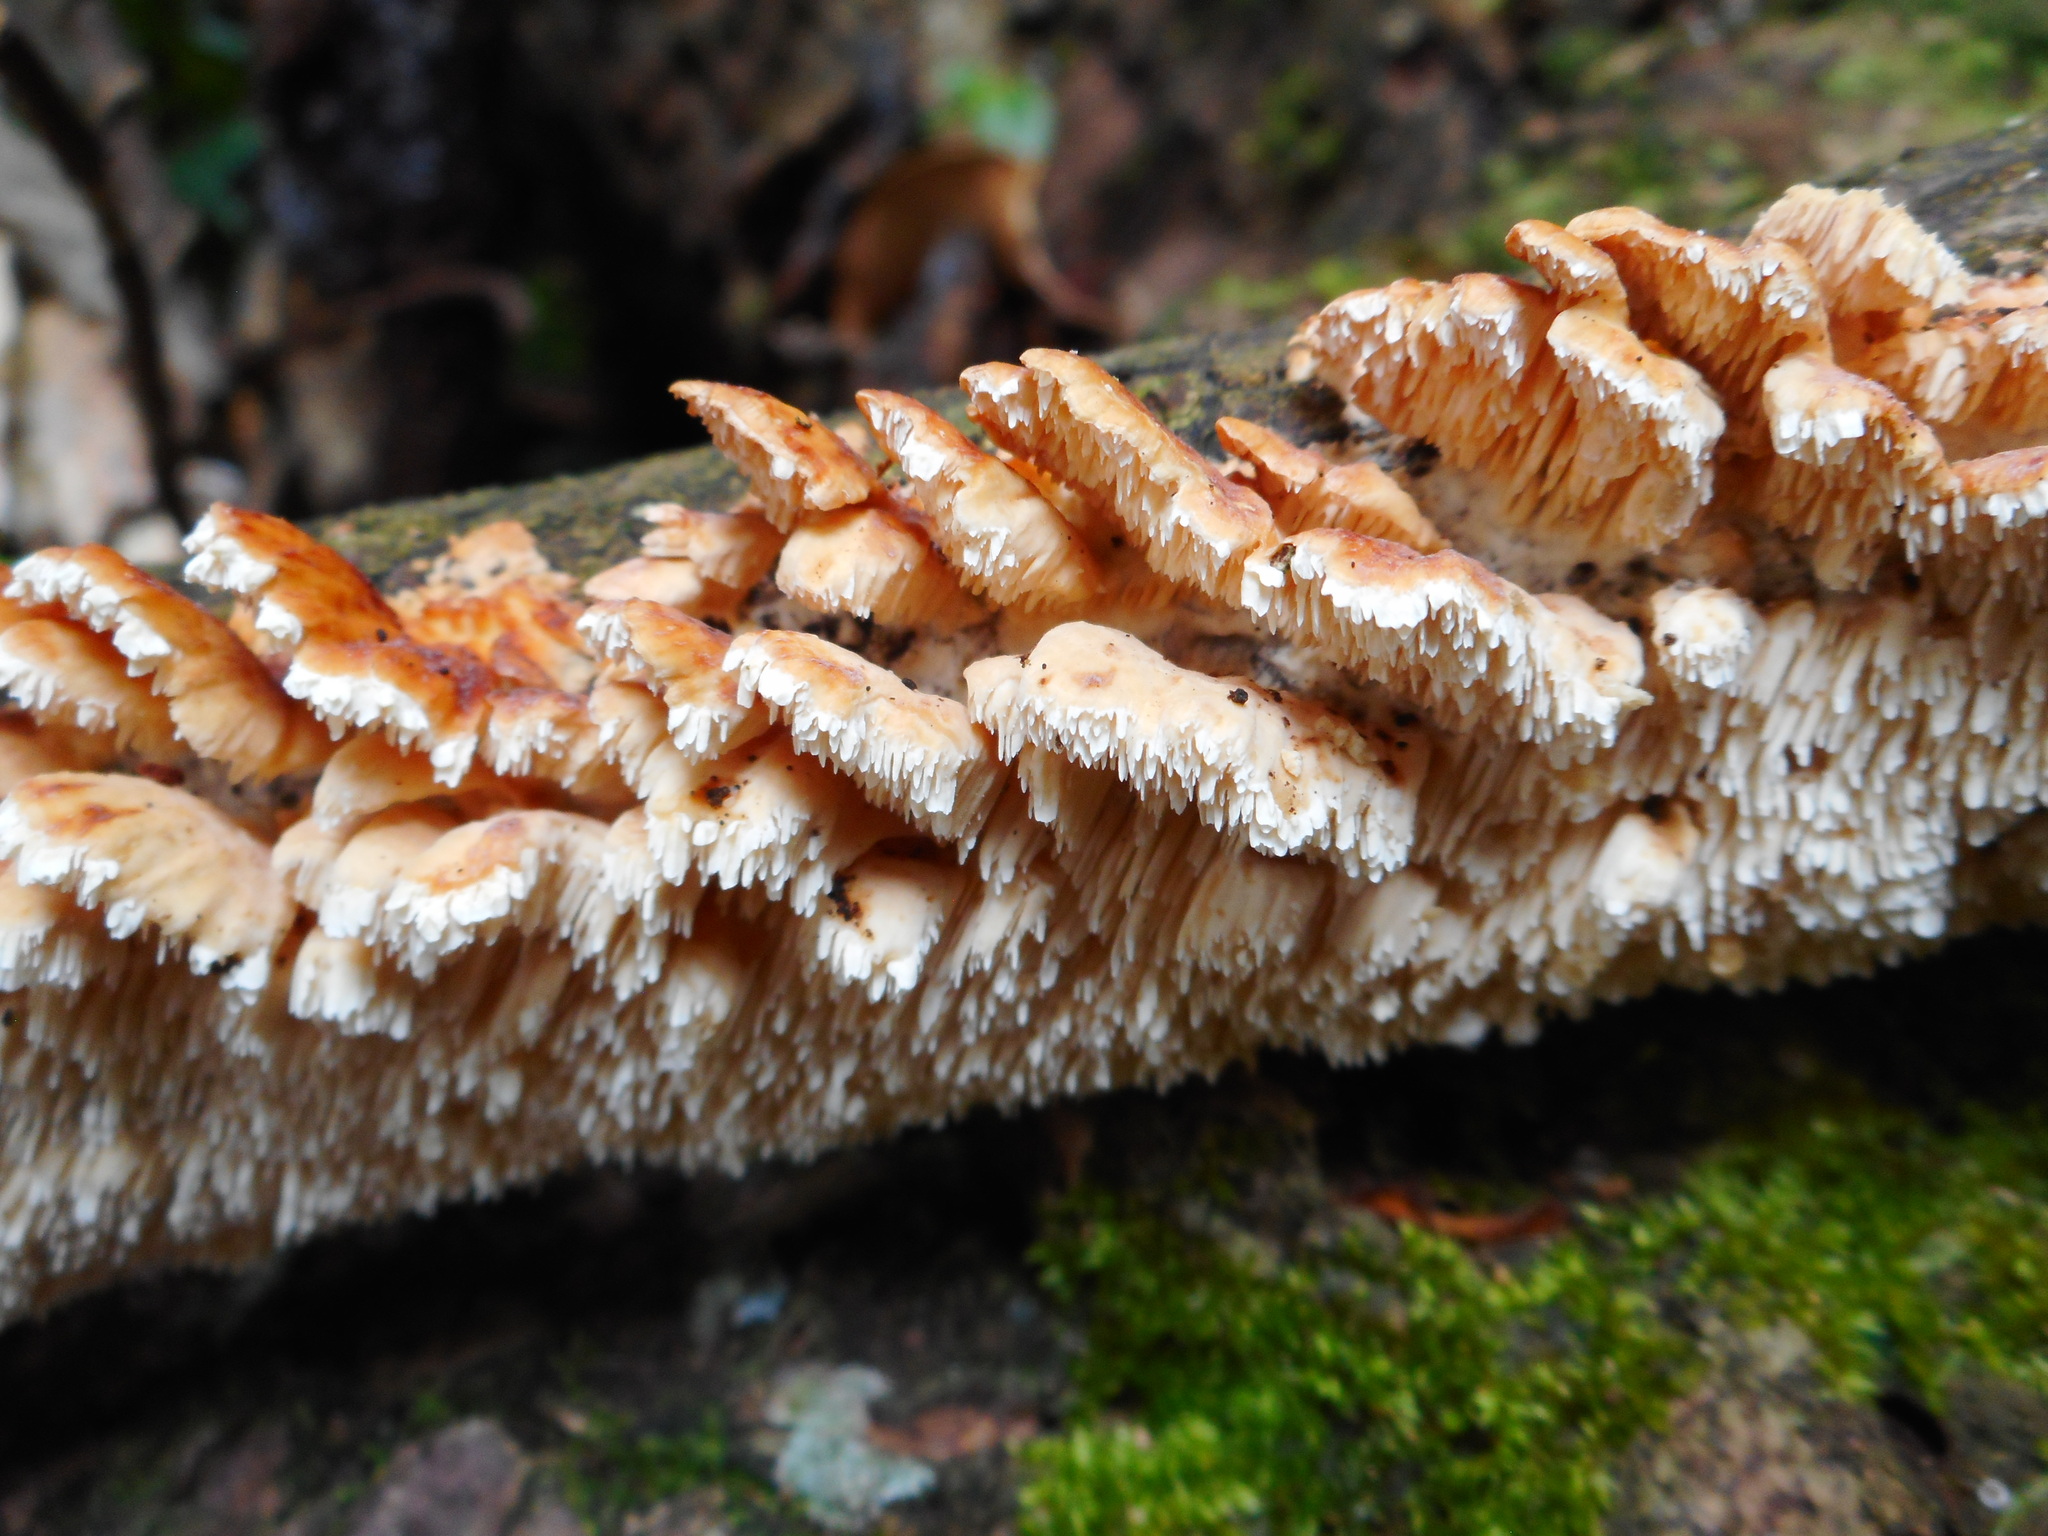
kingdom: Fungi
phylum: Basidiomycota
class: Agaricomycetes
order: Polyporales
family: Cerrenaceae
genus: Cerrena
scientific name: Cerrena zonata
